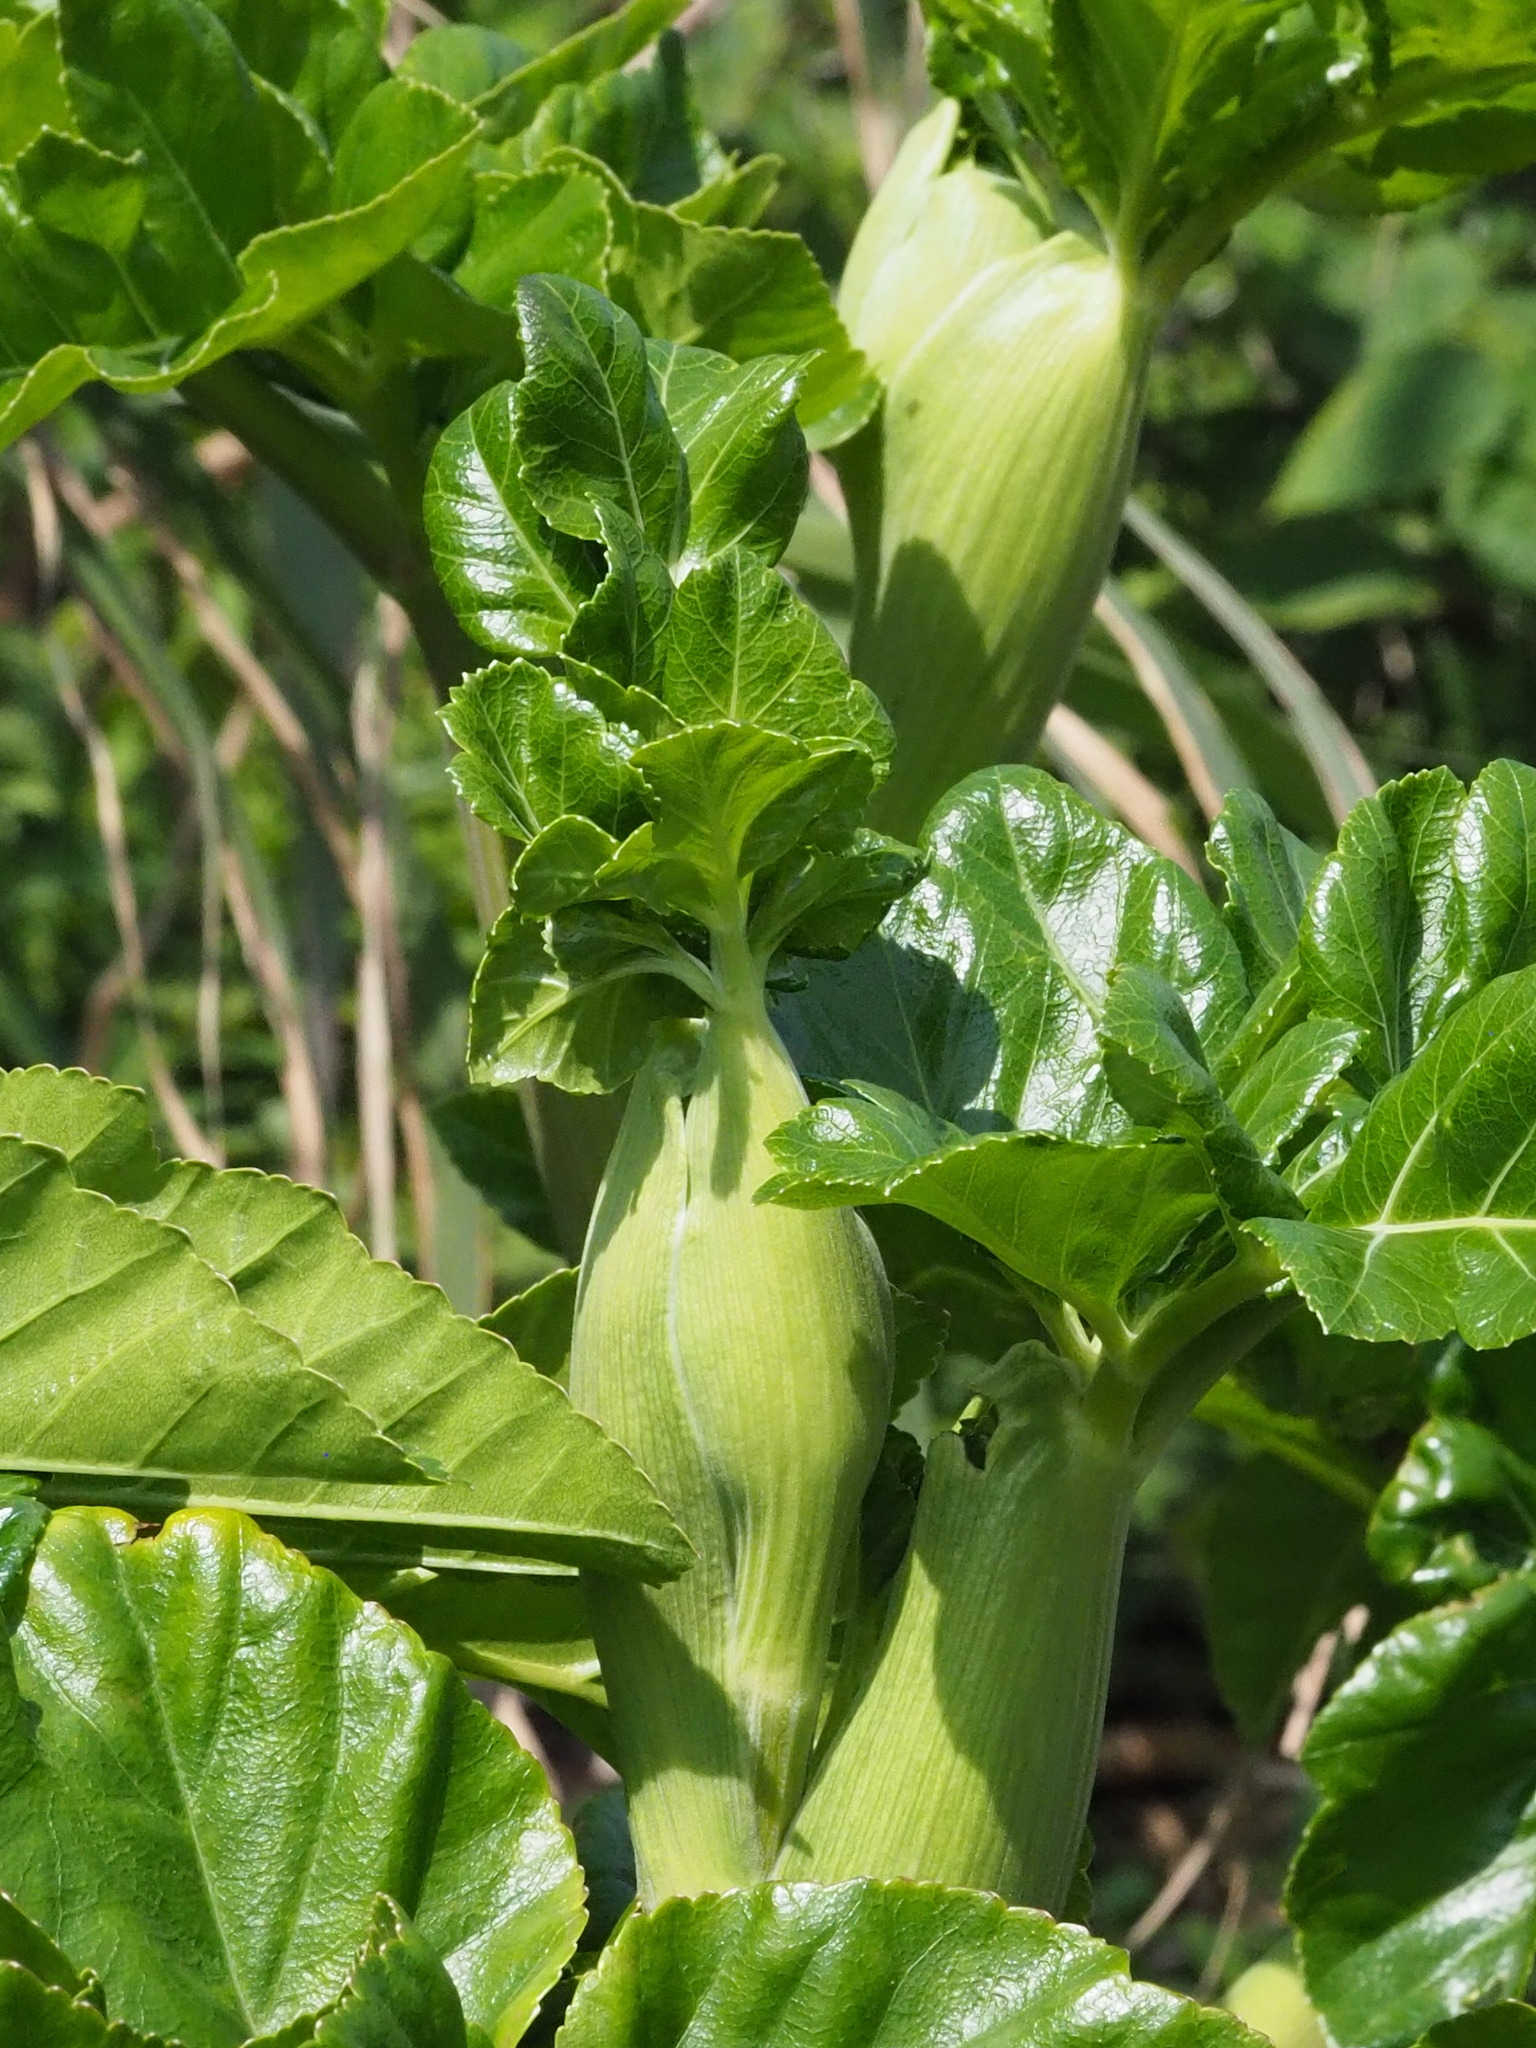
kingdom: Plantae
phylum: Tracheophyta
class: Magnoliopsida
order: Apiales
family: Apiaceae
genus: Angelica
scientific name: Angelica hirsutiflora
